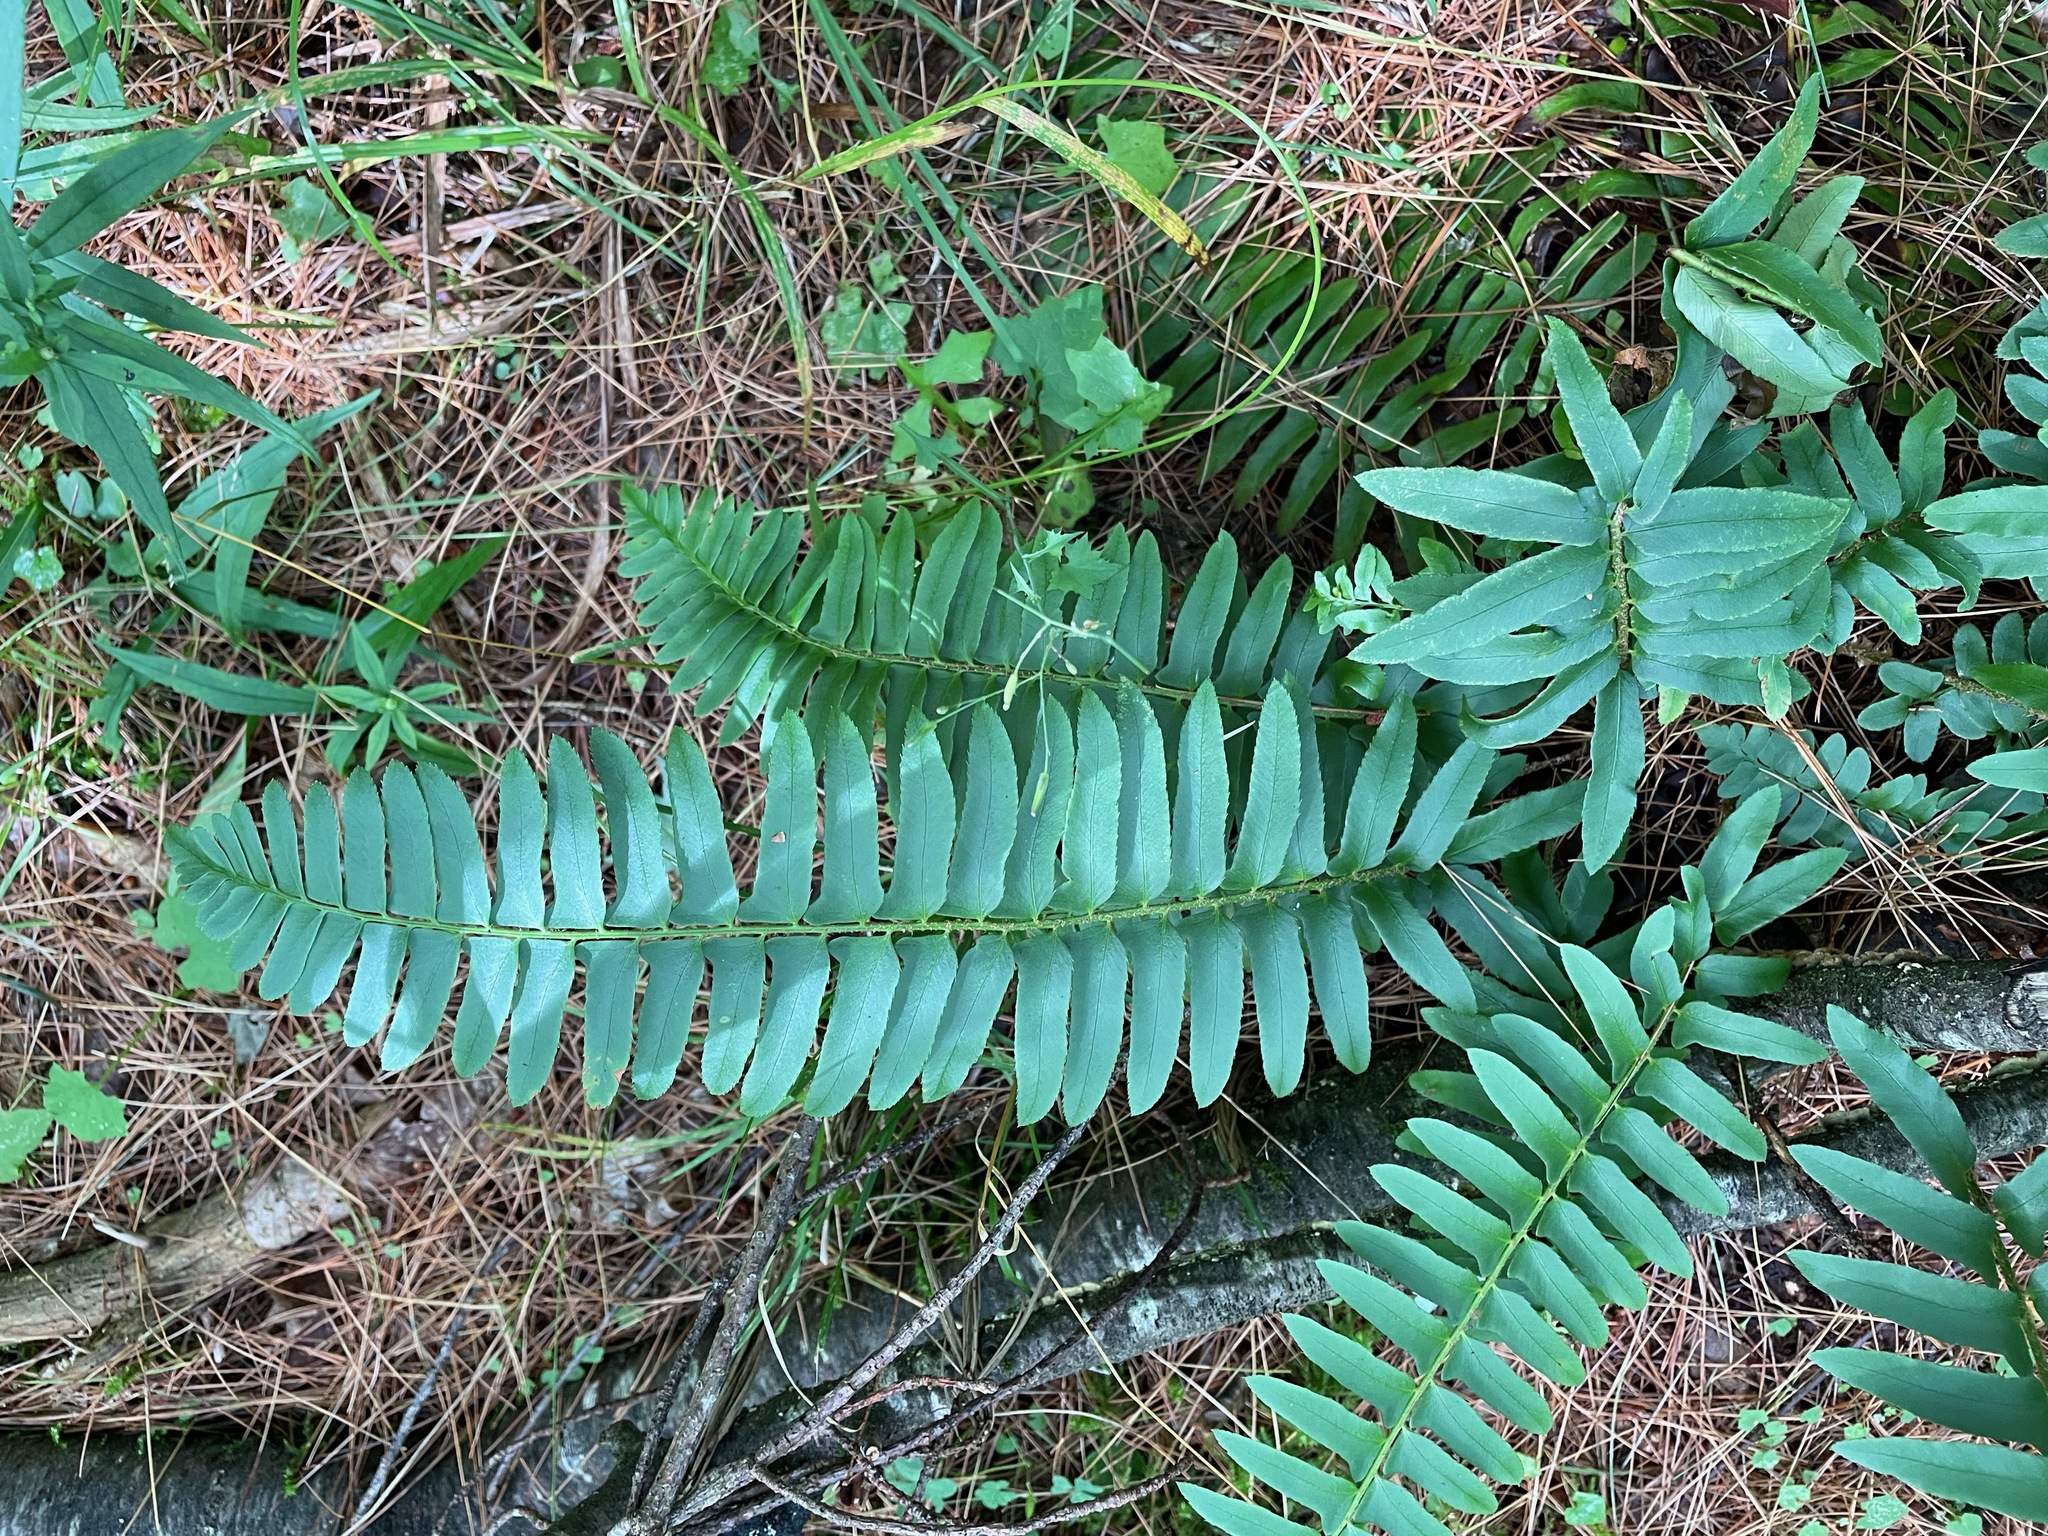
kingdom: Plantae
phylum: Tracheophyta
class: Polypodiopsida
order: Polypodiales
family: Dryopteridaceae
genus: Polystichum
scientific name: Polystichum acrostichoides
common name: Christmas fern
